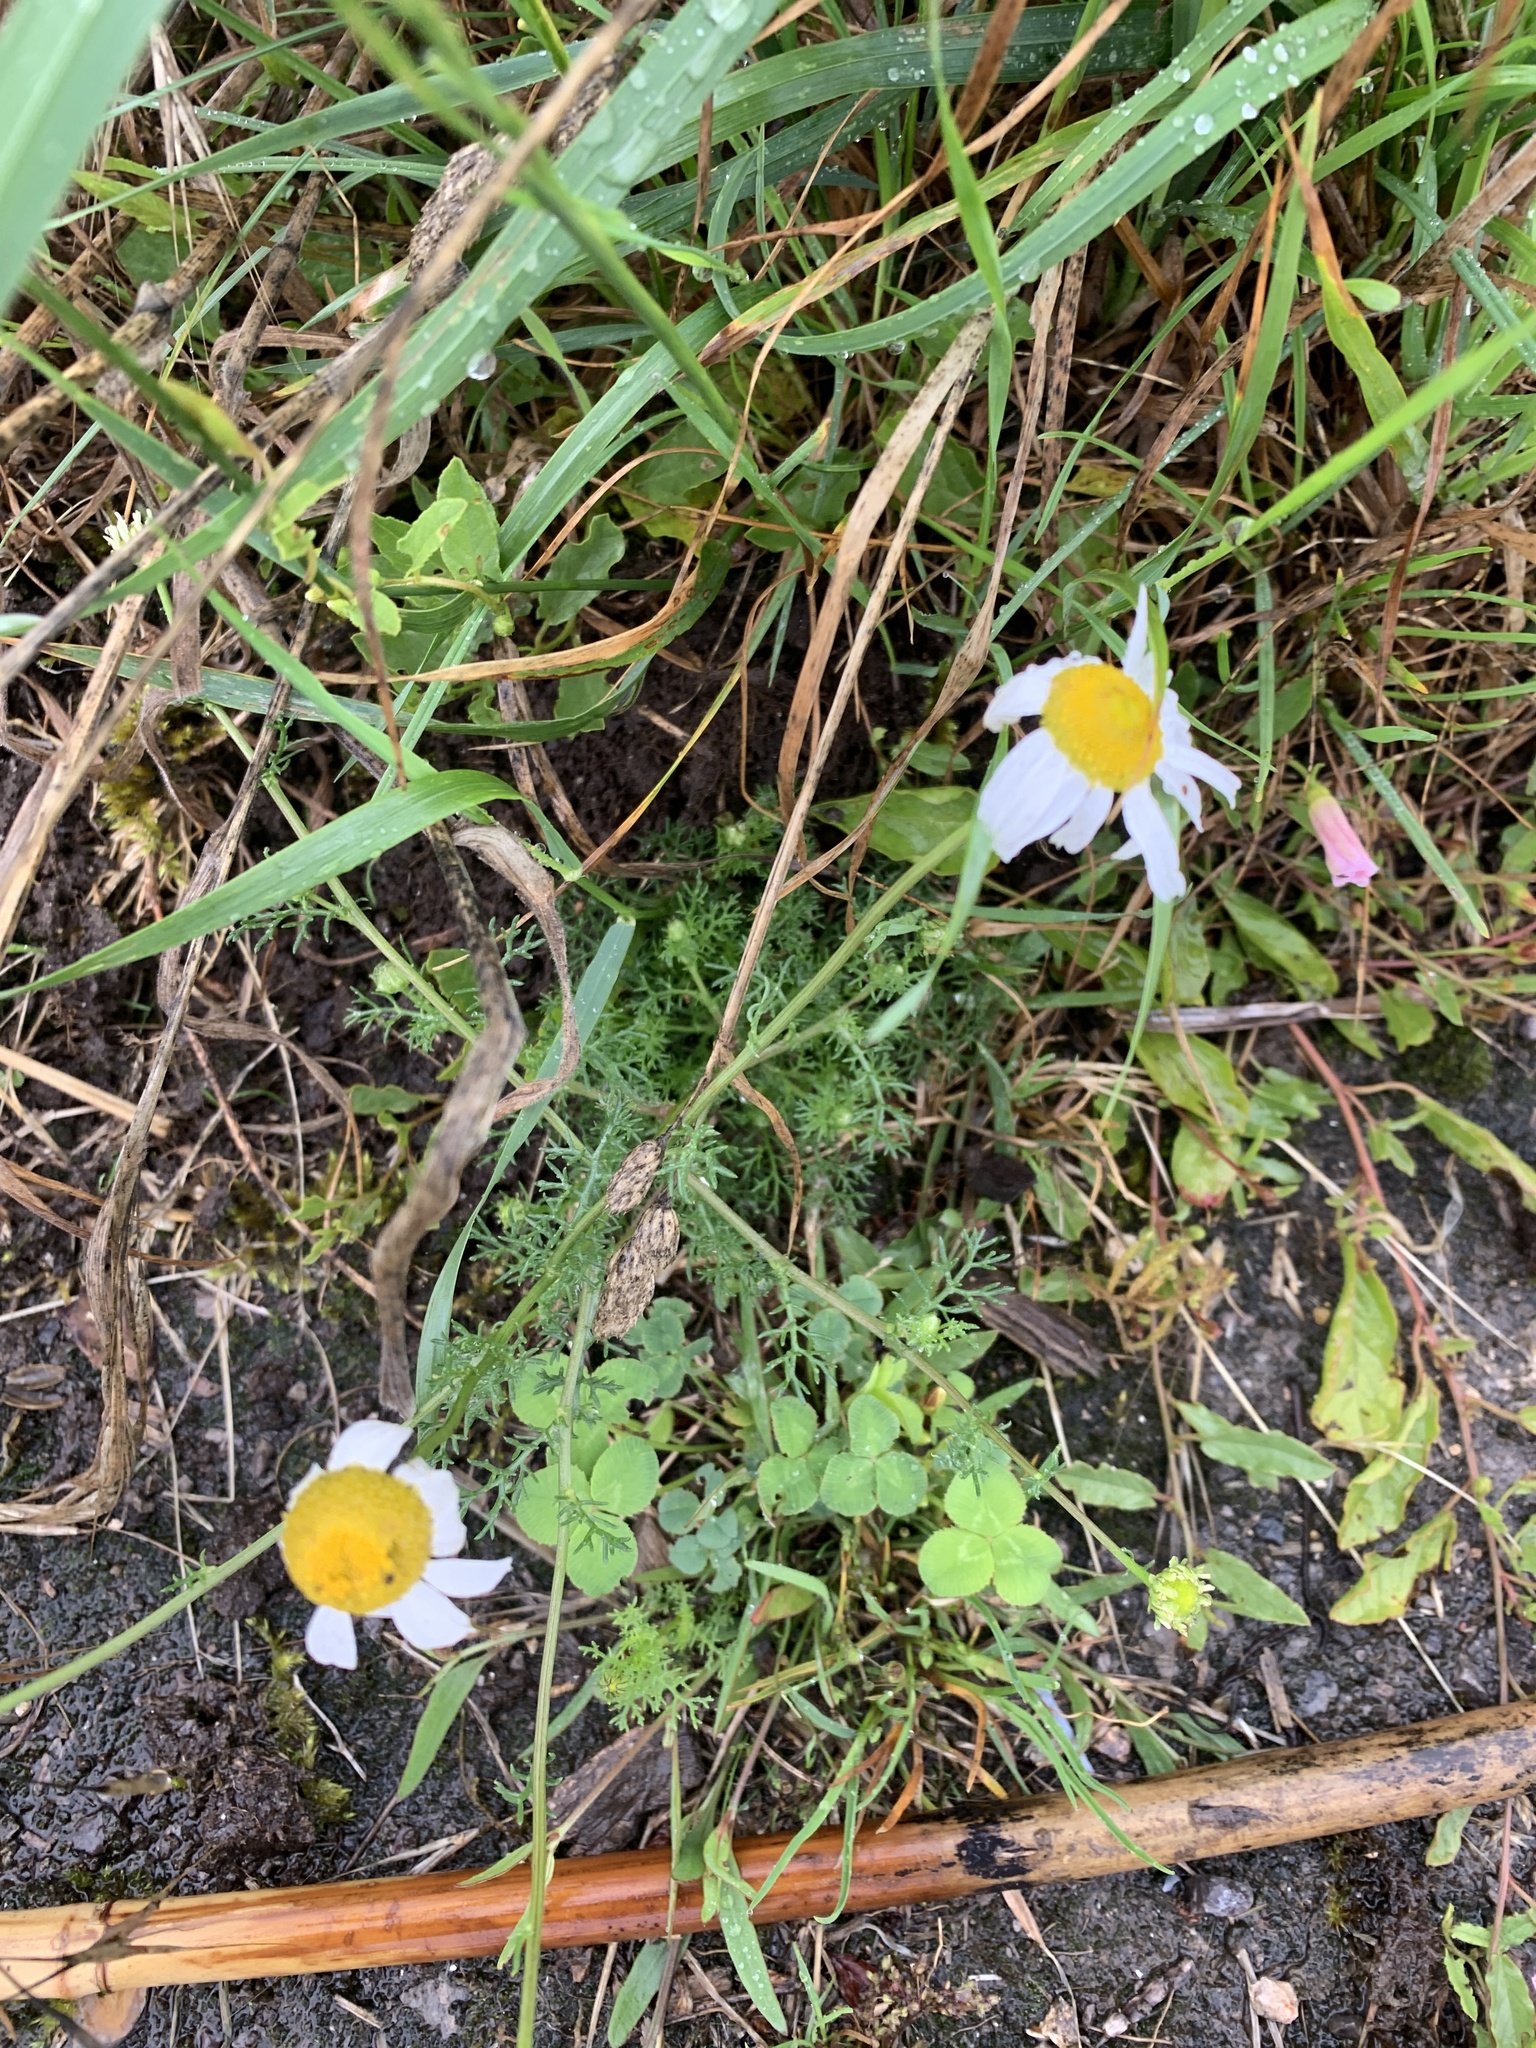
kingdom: Plantae
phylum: Tracheophyta
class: Magnoliopsida
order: Asterales
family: Asteraceae
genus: Tripleurospermum
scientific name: Tripleurospermum inodorum
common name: Scentless mayweed
